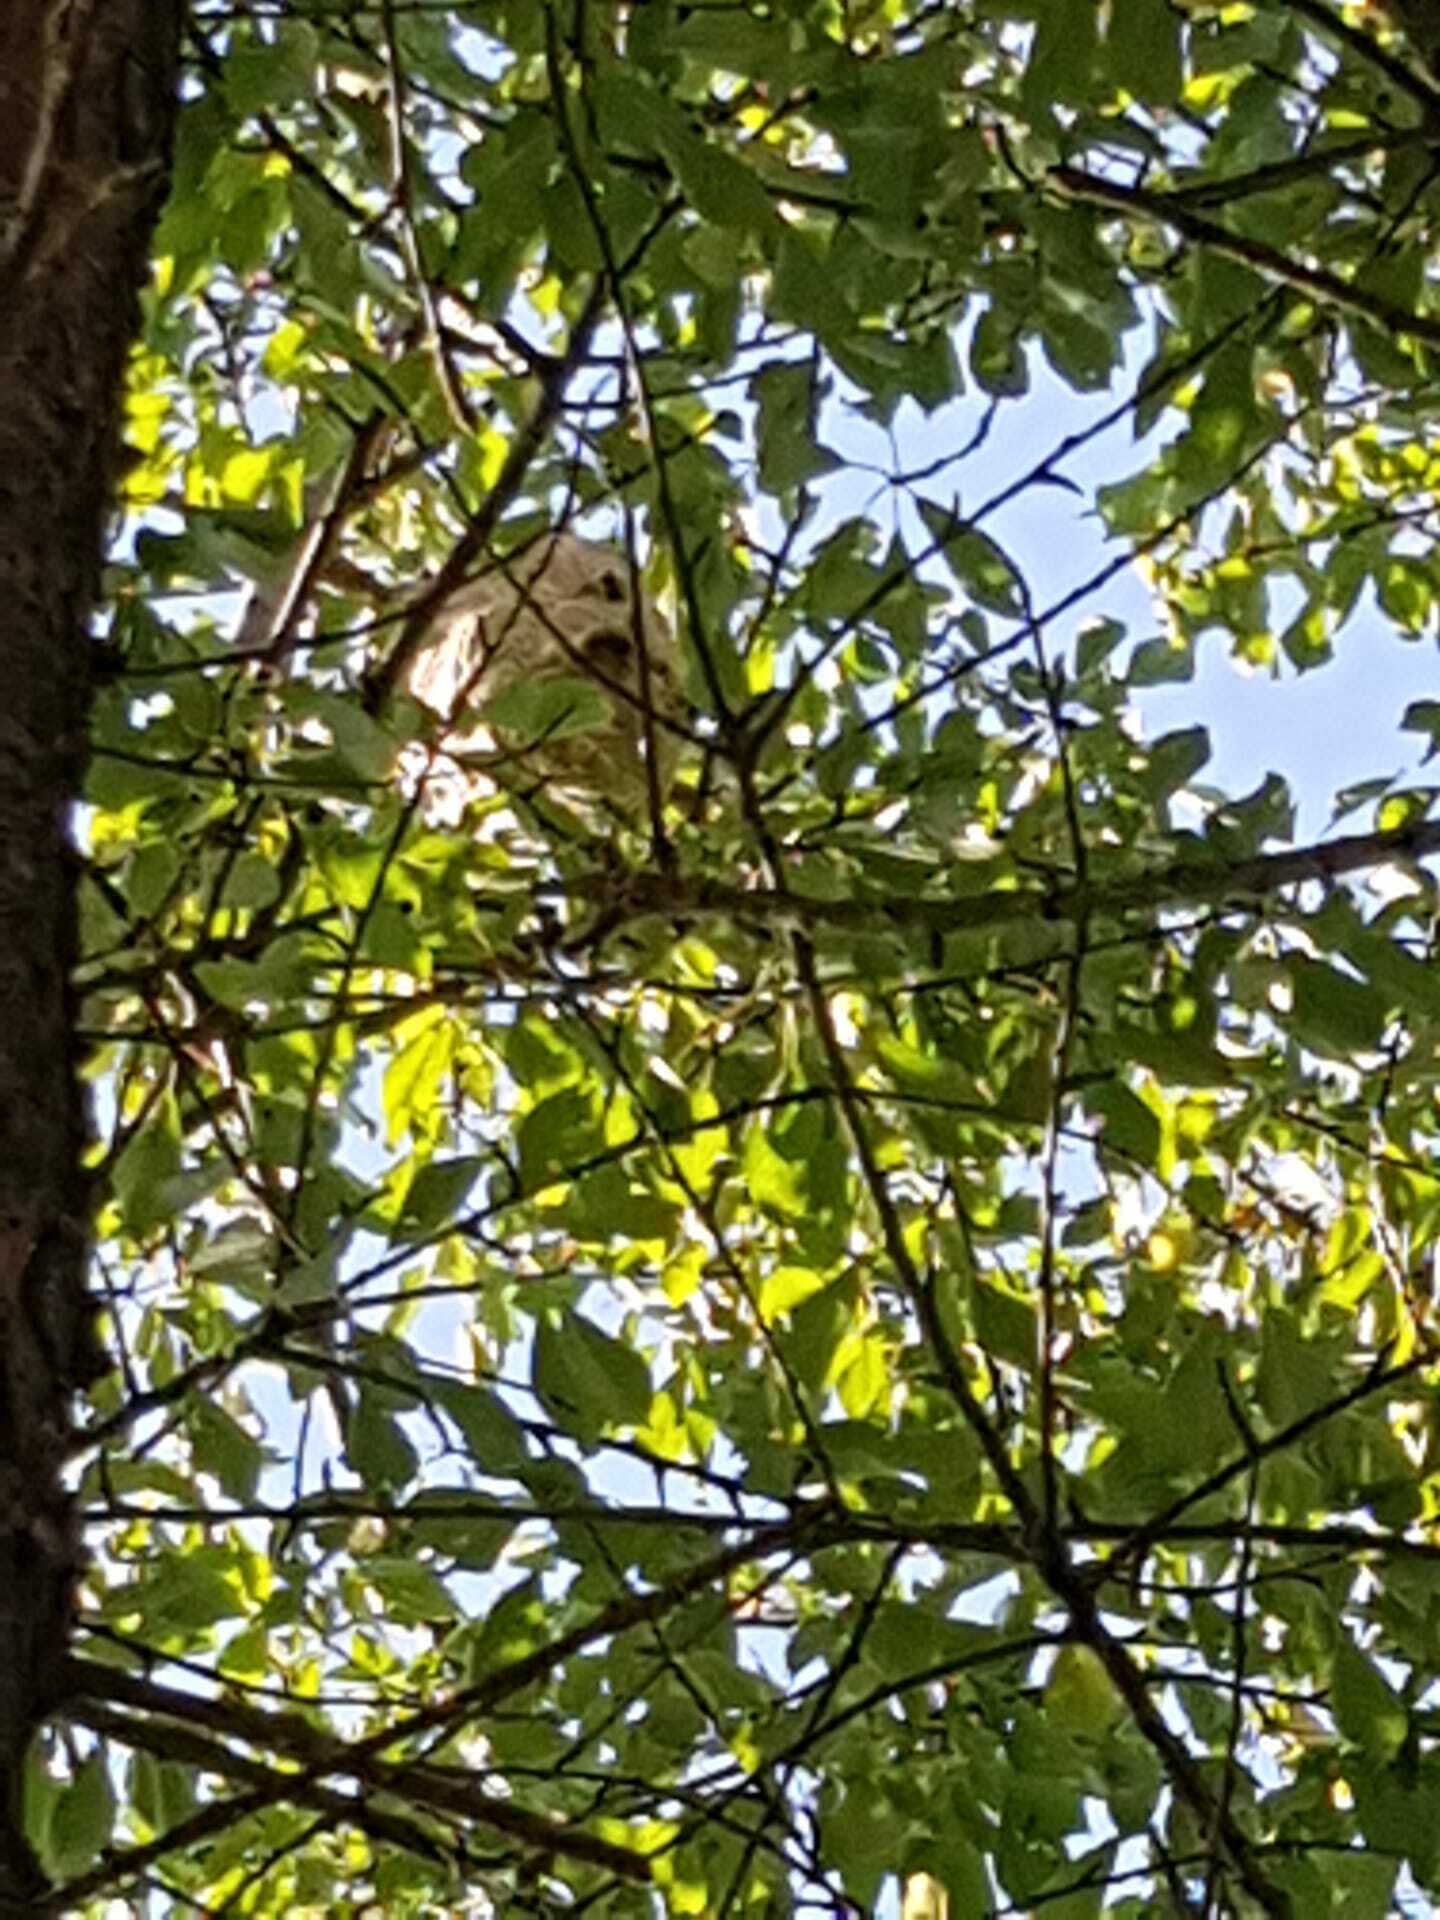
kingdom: Animalia
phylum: Arthropoda
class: Insecta
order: Hymenoptera
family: Vespidae
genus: Vespa
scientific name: Vespa velutina
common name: Asian hornet
